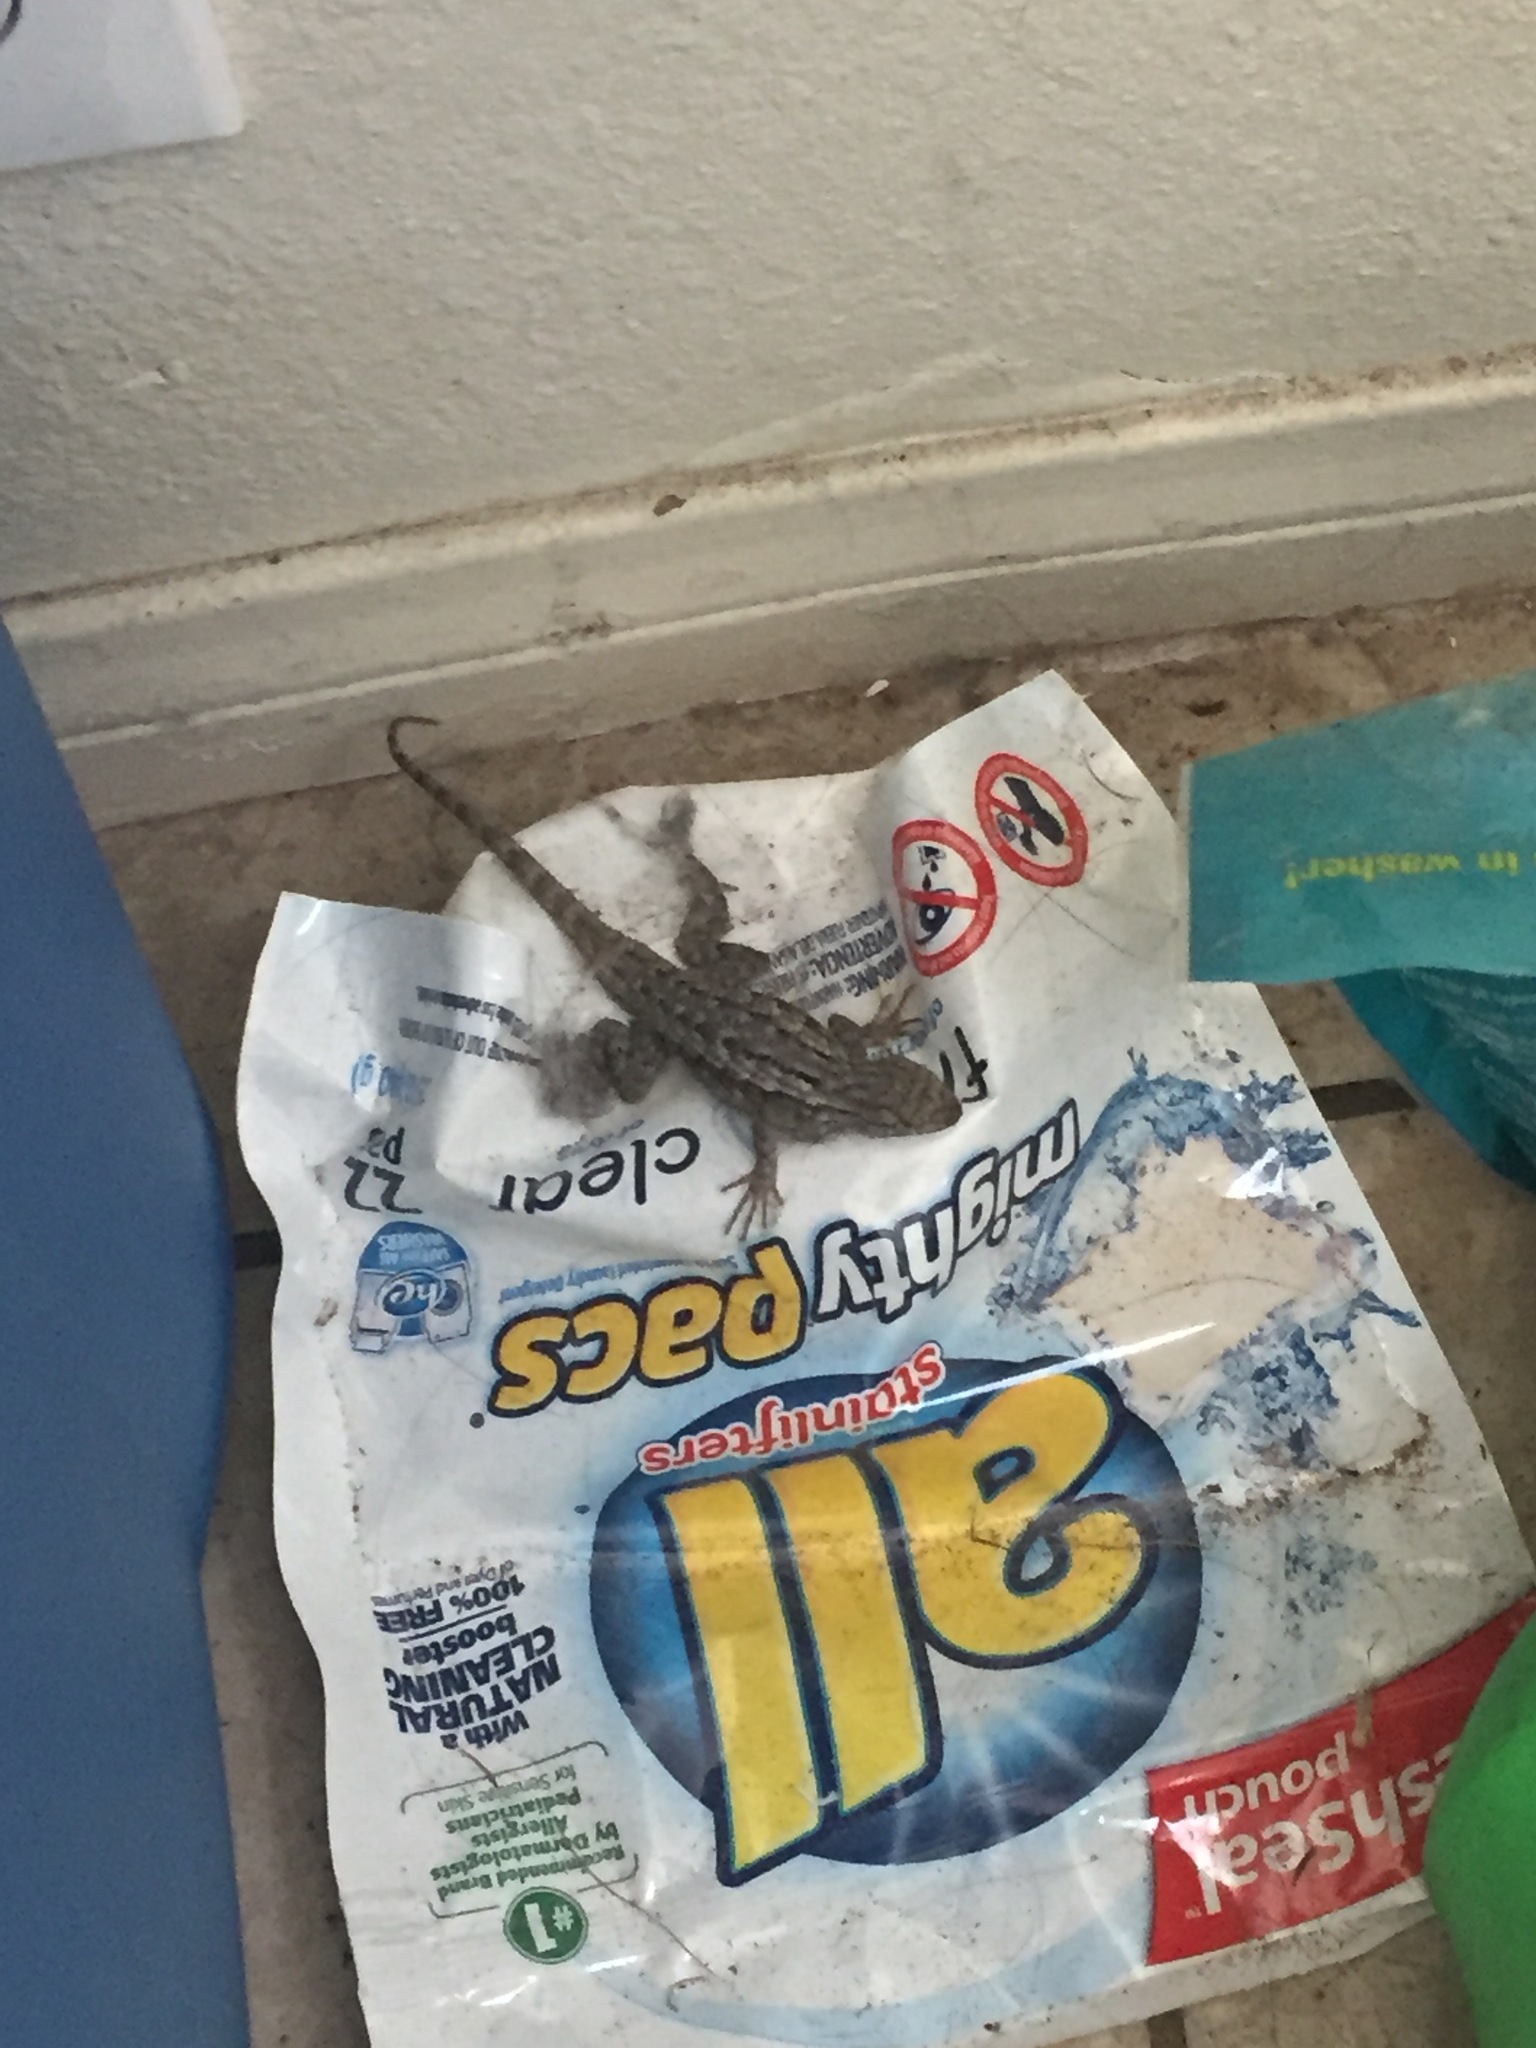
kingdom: Animalia
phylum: Chordata
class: Squamata
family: Phrynosomatidae
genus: Sceloporus
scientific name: Sceloporus occidentalis
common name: Western fence lizard
